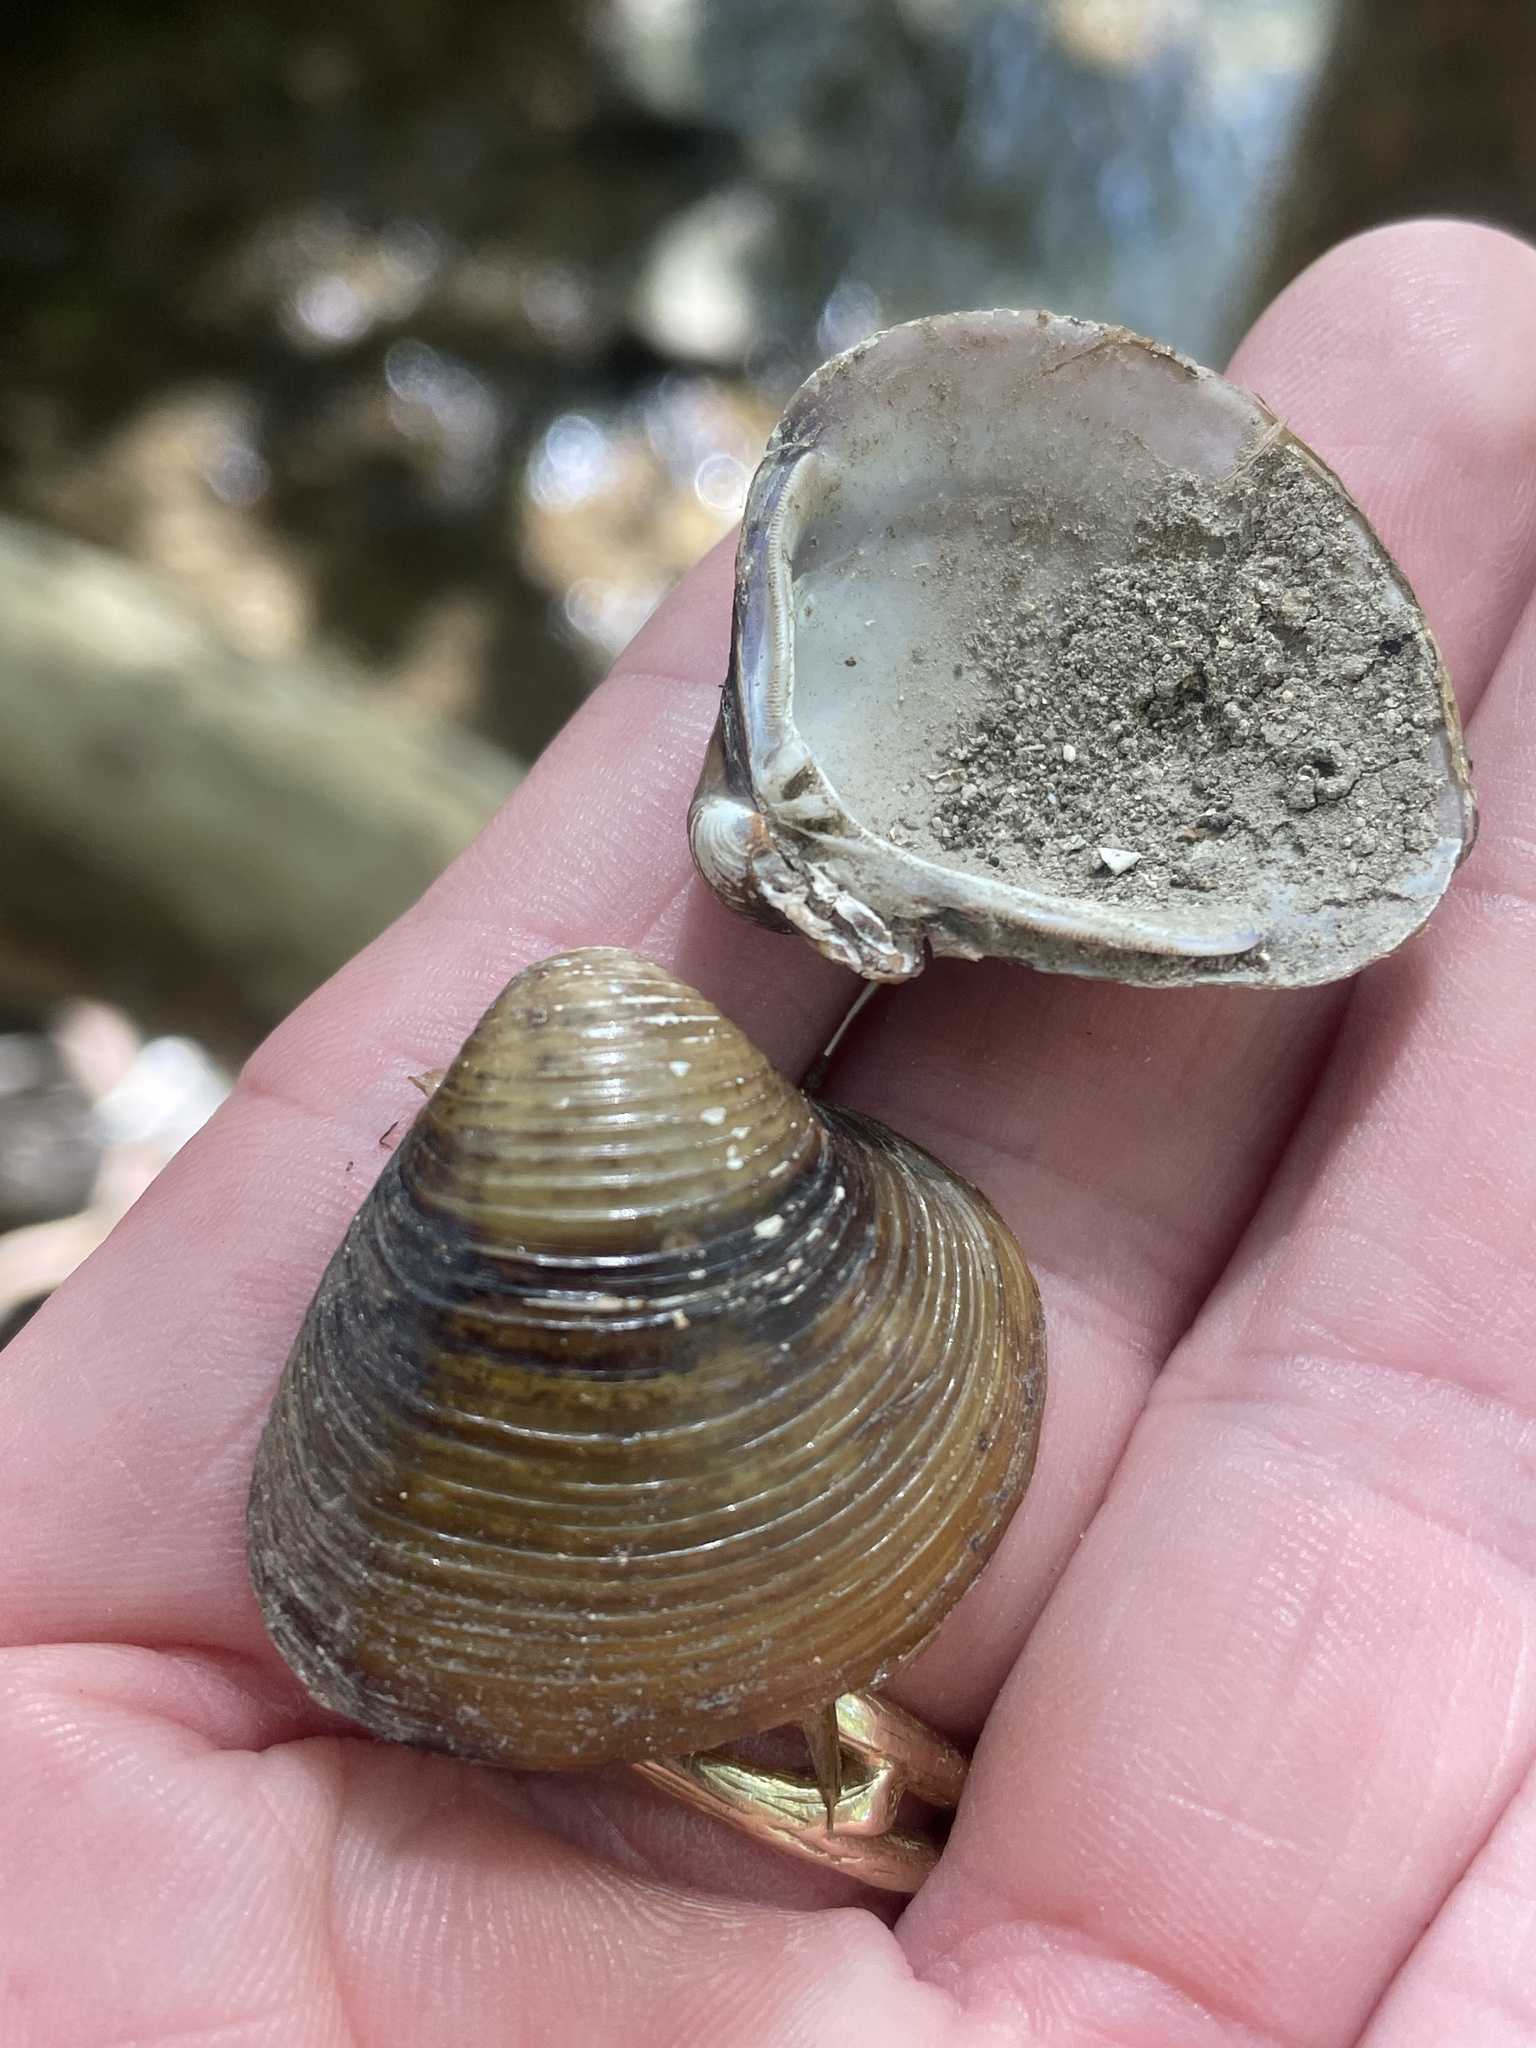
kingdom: Animalia
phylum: Mollusca
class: Bivalvia
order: Venerida
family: Cyrenidae
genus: Corbicula
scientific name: Corbicula fluminea
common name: Asian clam
